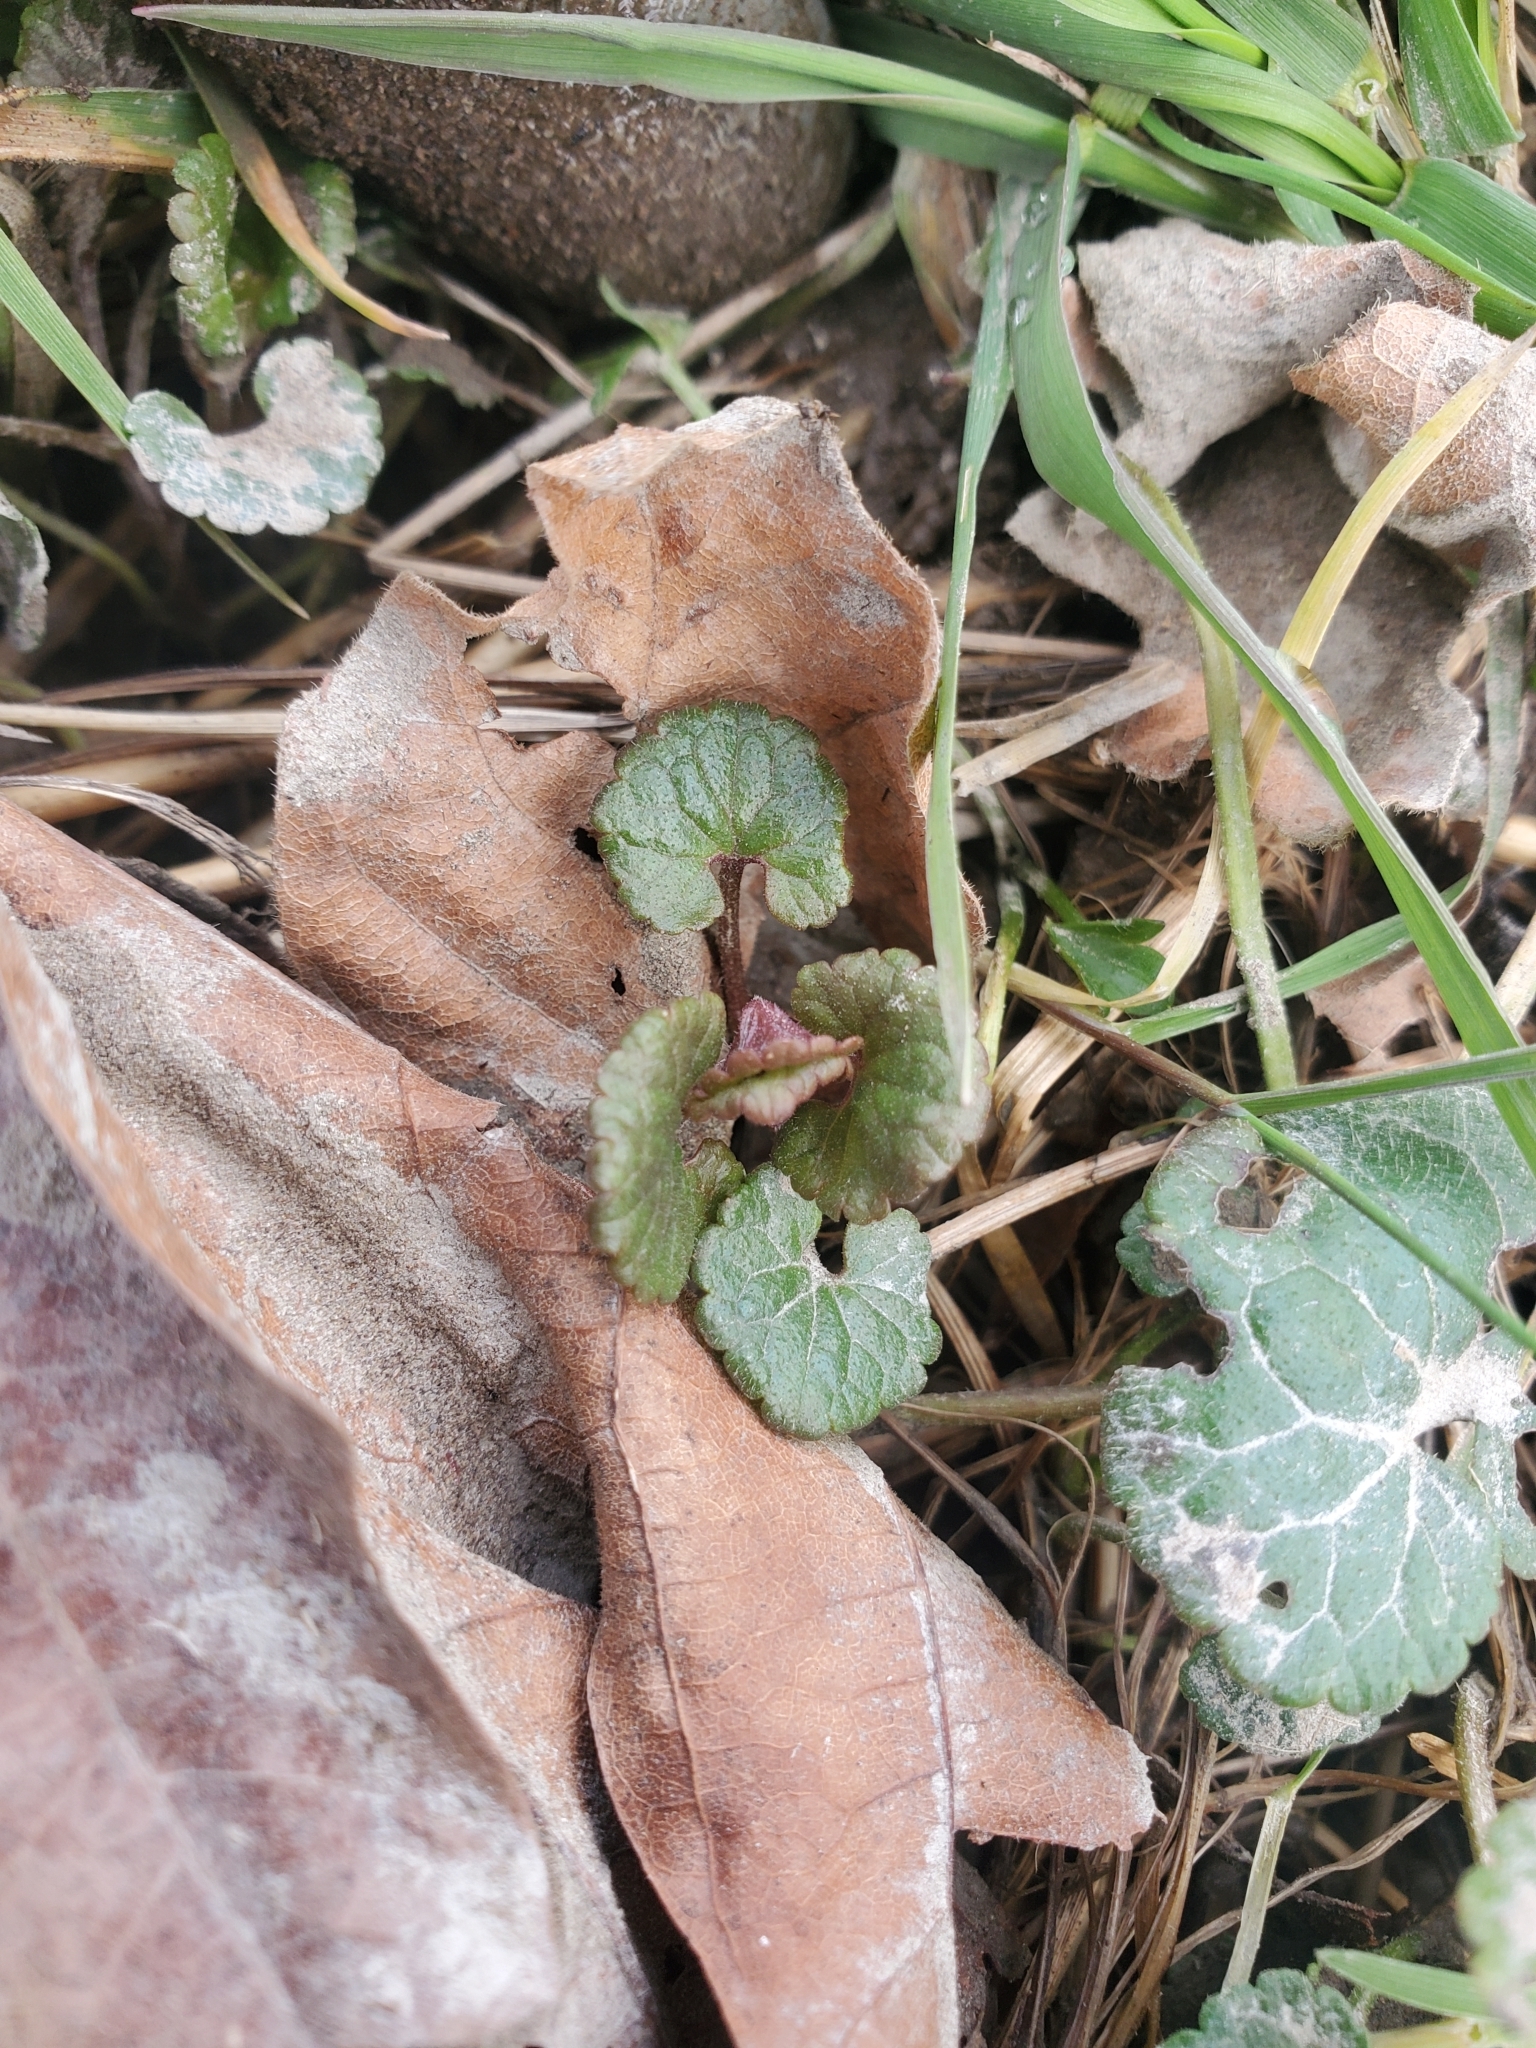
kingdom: Plantae
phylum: Tracheophyta
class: Magnoliopsida
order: Lamiales
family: Lamiaceae
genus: Glechoma
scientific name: Glechoma hederacea
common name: Ground ivy
